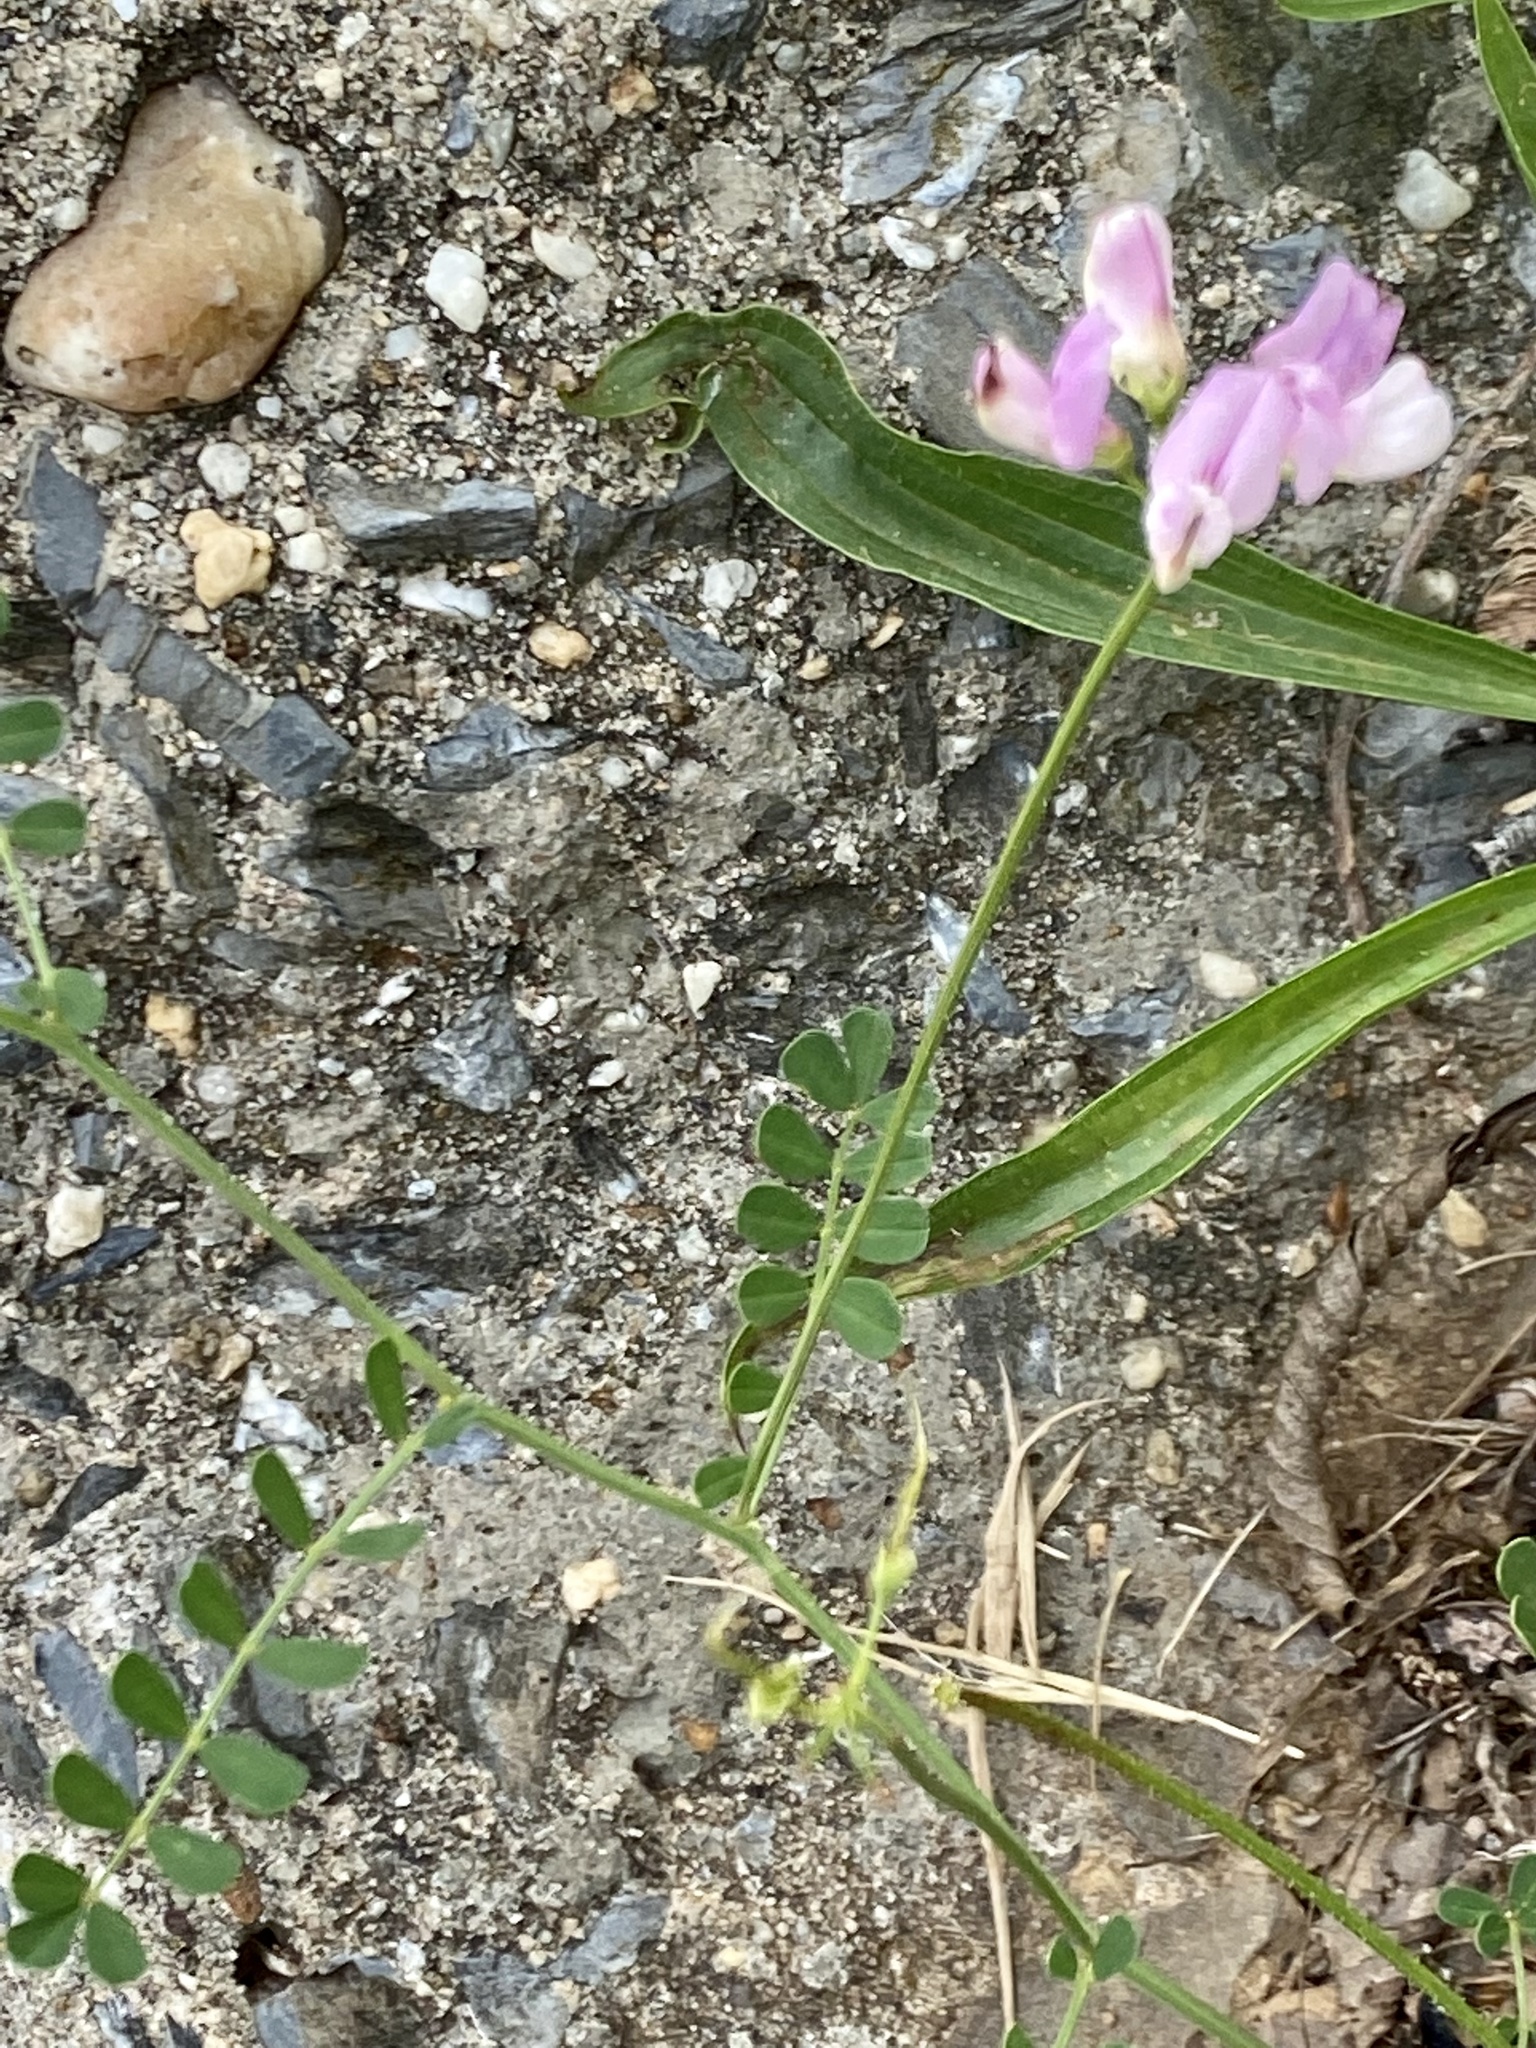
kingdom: Plantae
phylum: Tracheophyta
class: Magnoliopsida
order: Fabales
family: Fabaceae
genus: Coronilla
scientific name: Coronilla varia
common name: Crownvetch
